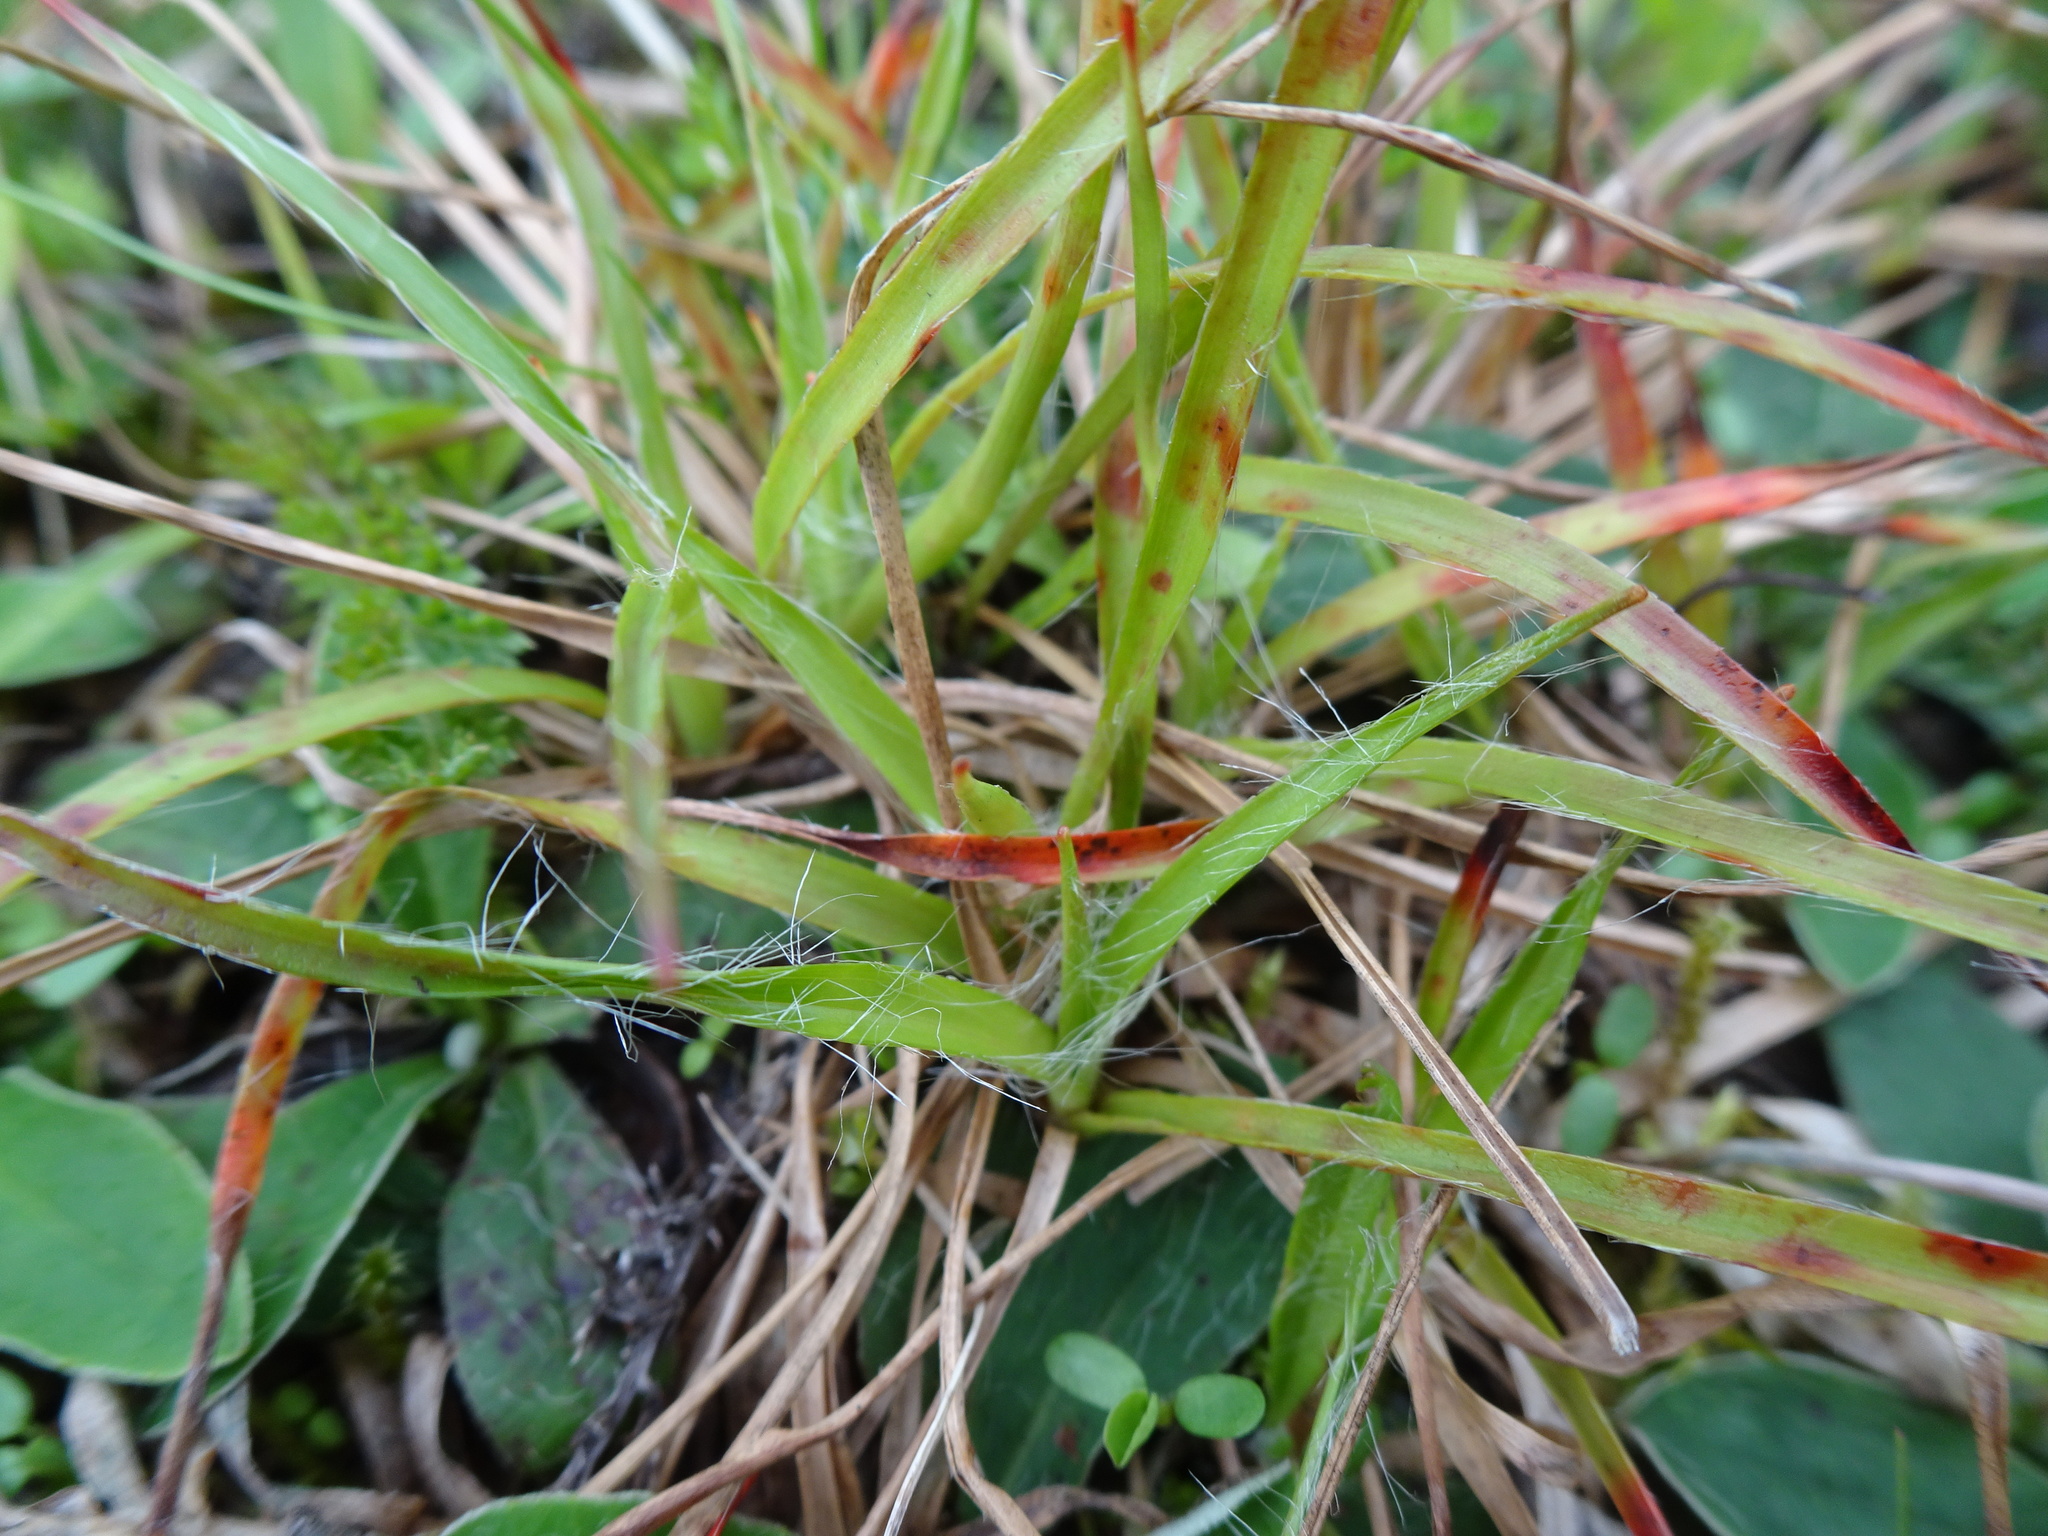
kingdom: Plantae
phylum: Tracheophyta
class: Liliopsida
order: Poales
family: Juncaceae
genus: Luzula
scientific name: Luzula campestris
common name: Field wood-rush
